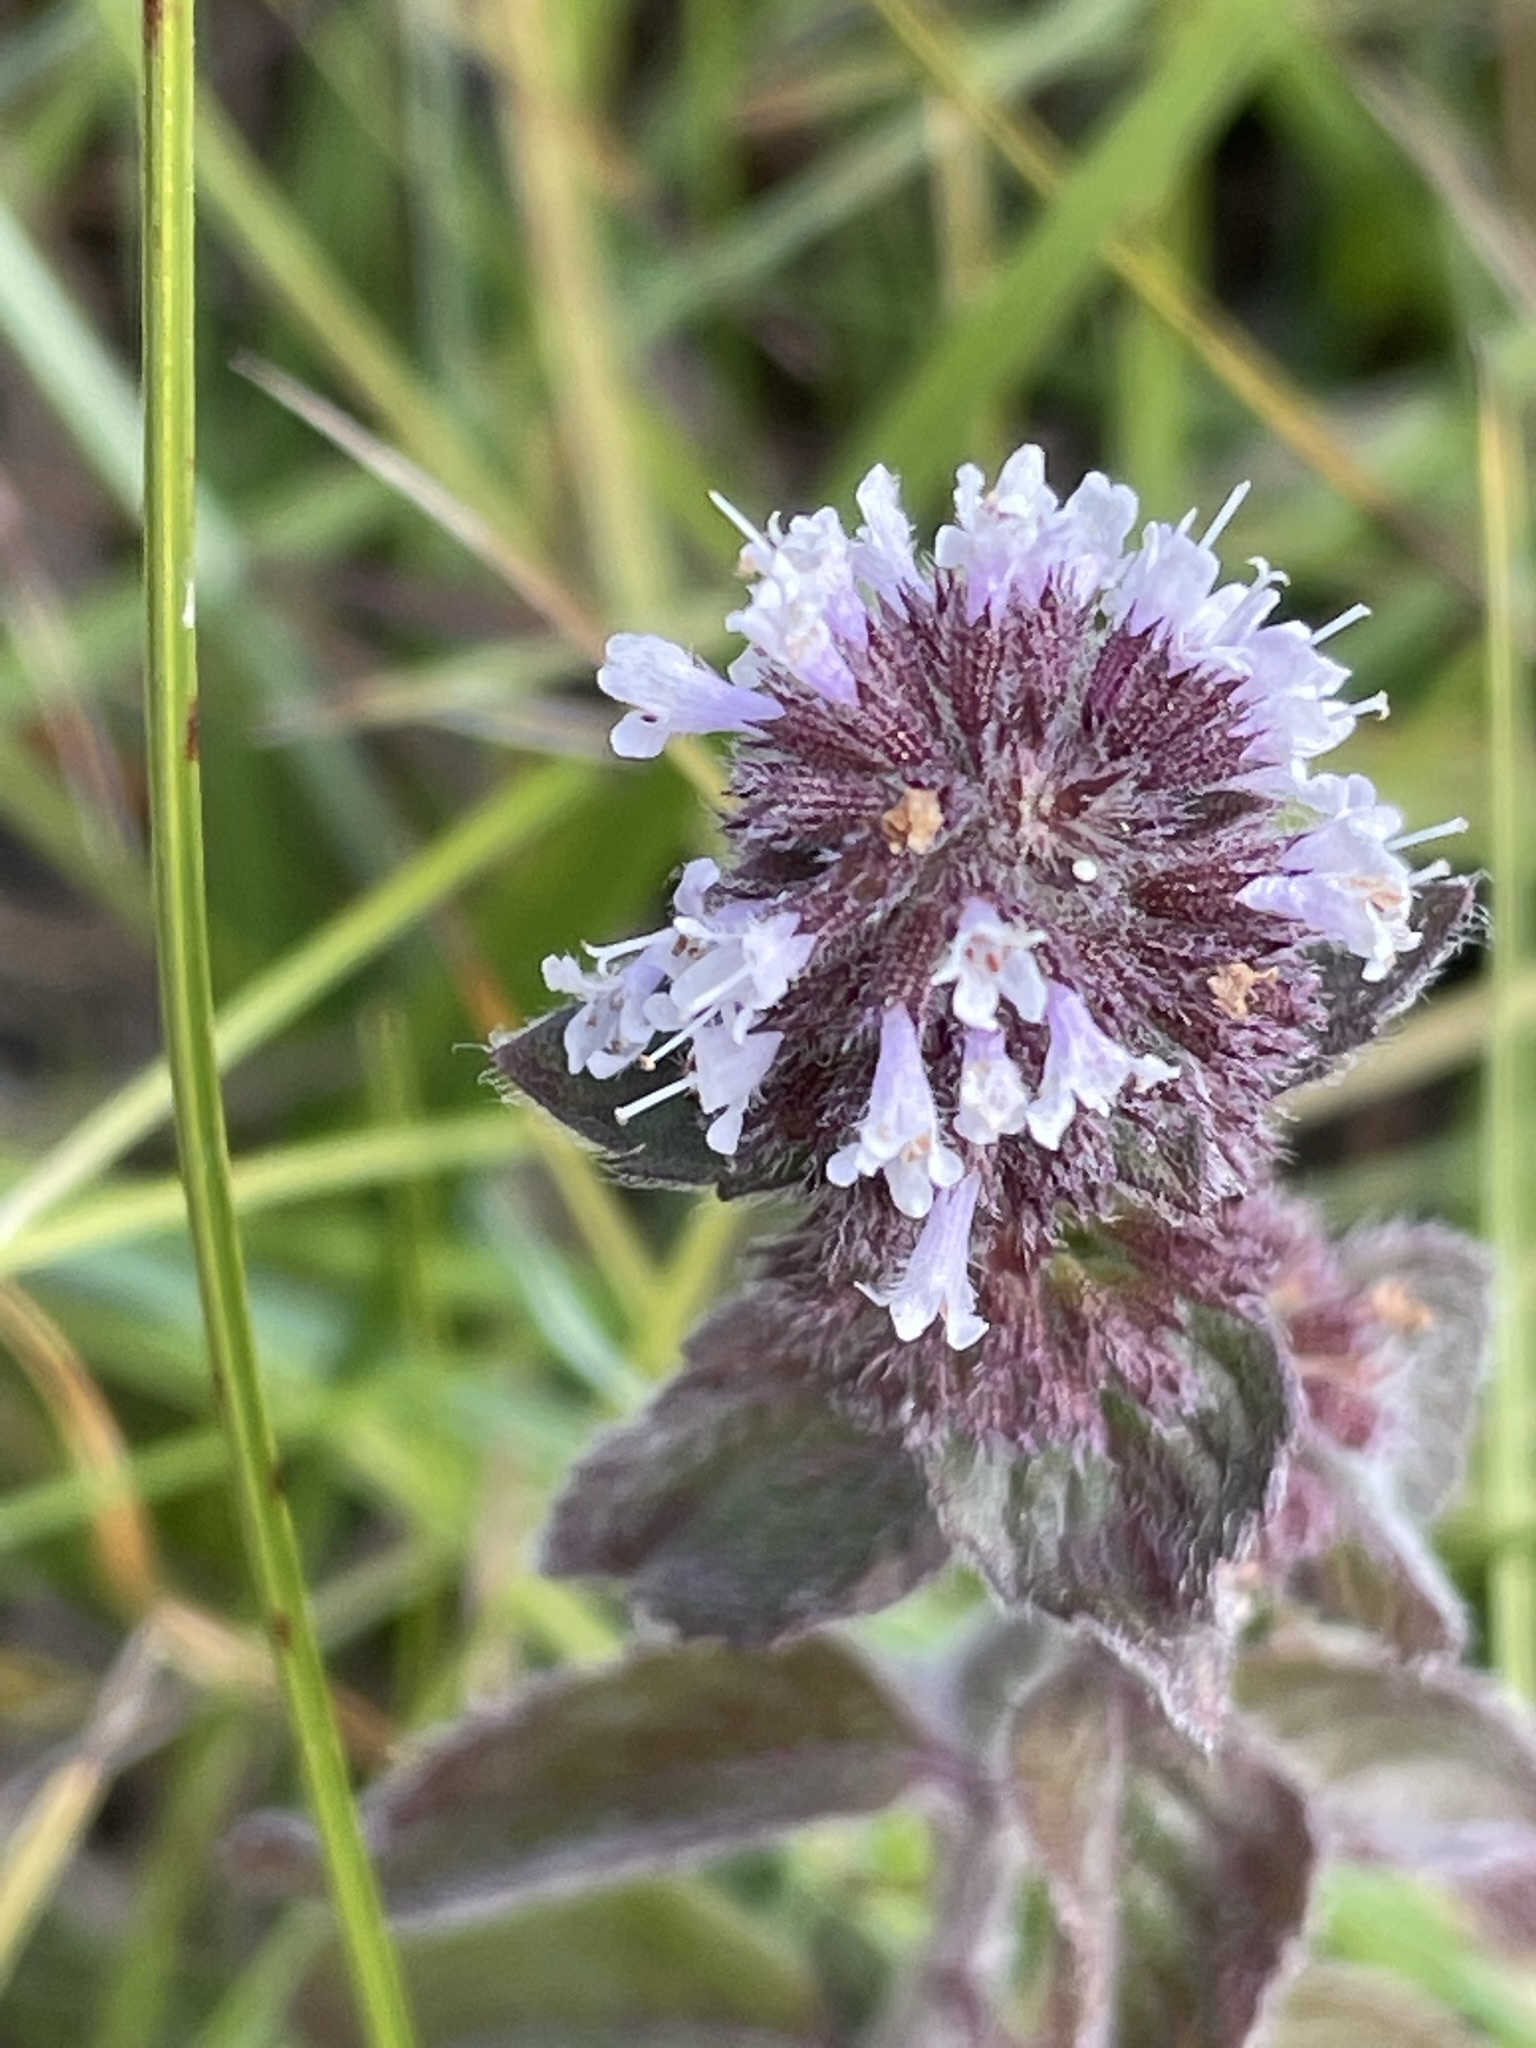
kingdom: Plantae
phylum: Tracheophyta
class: Magnoliopsida
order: Lamiales
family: Lamiaceae
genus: Mentha
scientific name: Mentha aquatica
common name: Water mint
